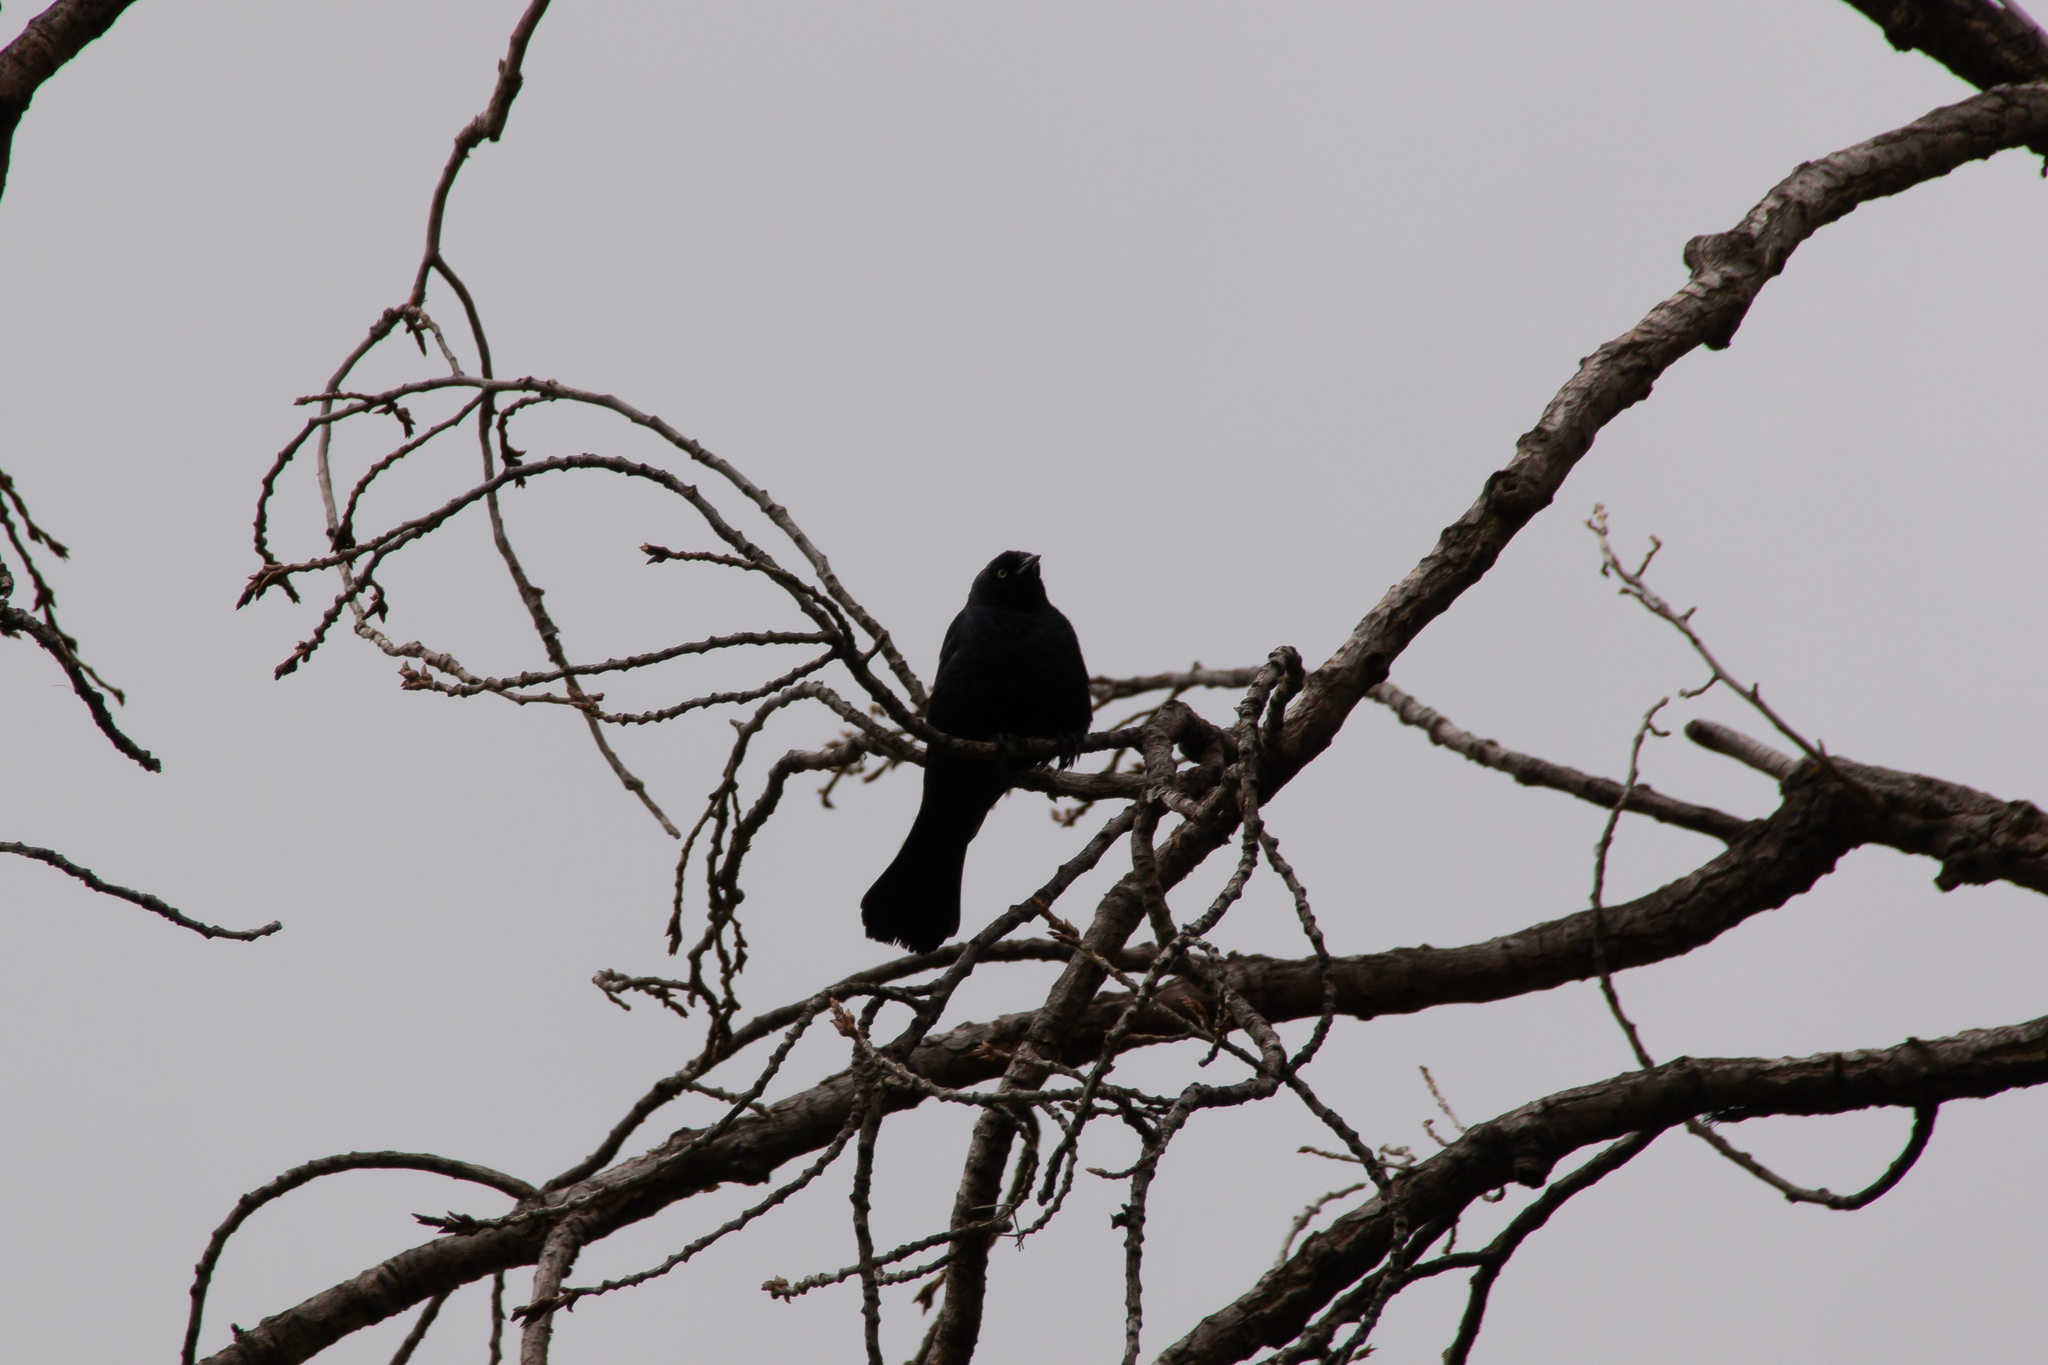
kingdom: Animalia
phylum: Chordata
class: Aves
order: Passeriformes
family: Icteridae
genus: Euphagus
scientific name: Euphagus cyanocephalus
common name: Brewer's blackbird
